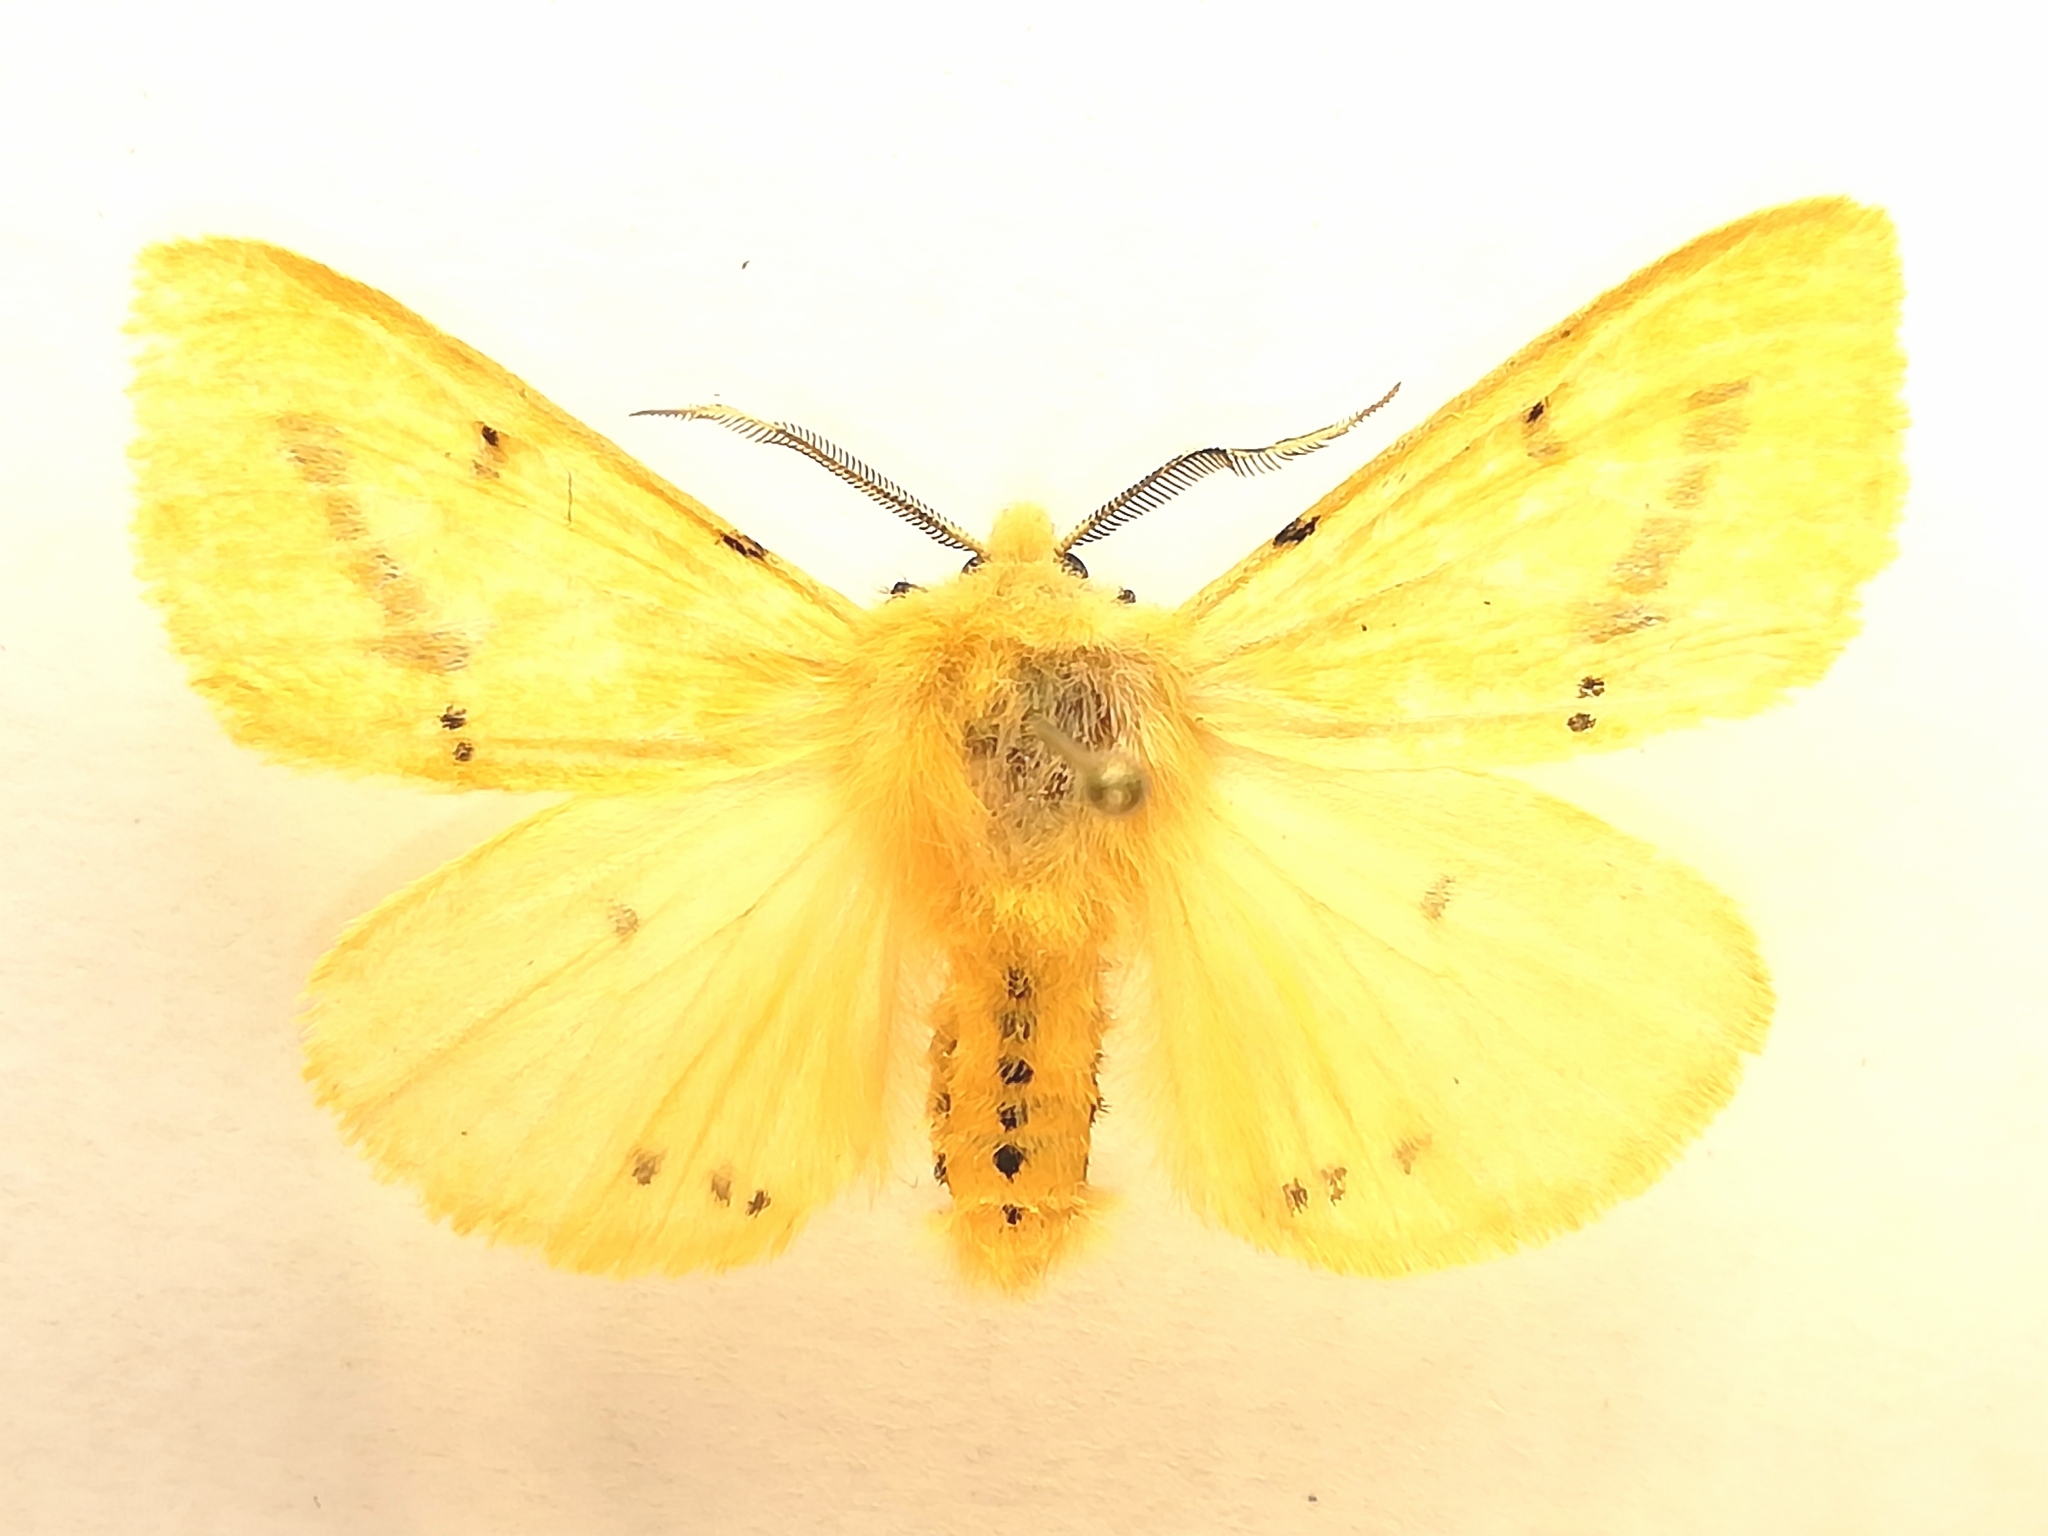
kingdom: Animalia
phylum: Arthropoda
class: Insecta
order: Lepidoptera
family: Erebidae
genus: Spilarctia
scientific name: Spilarctia lutea
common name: Buff ermine
